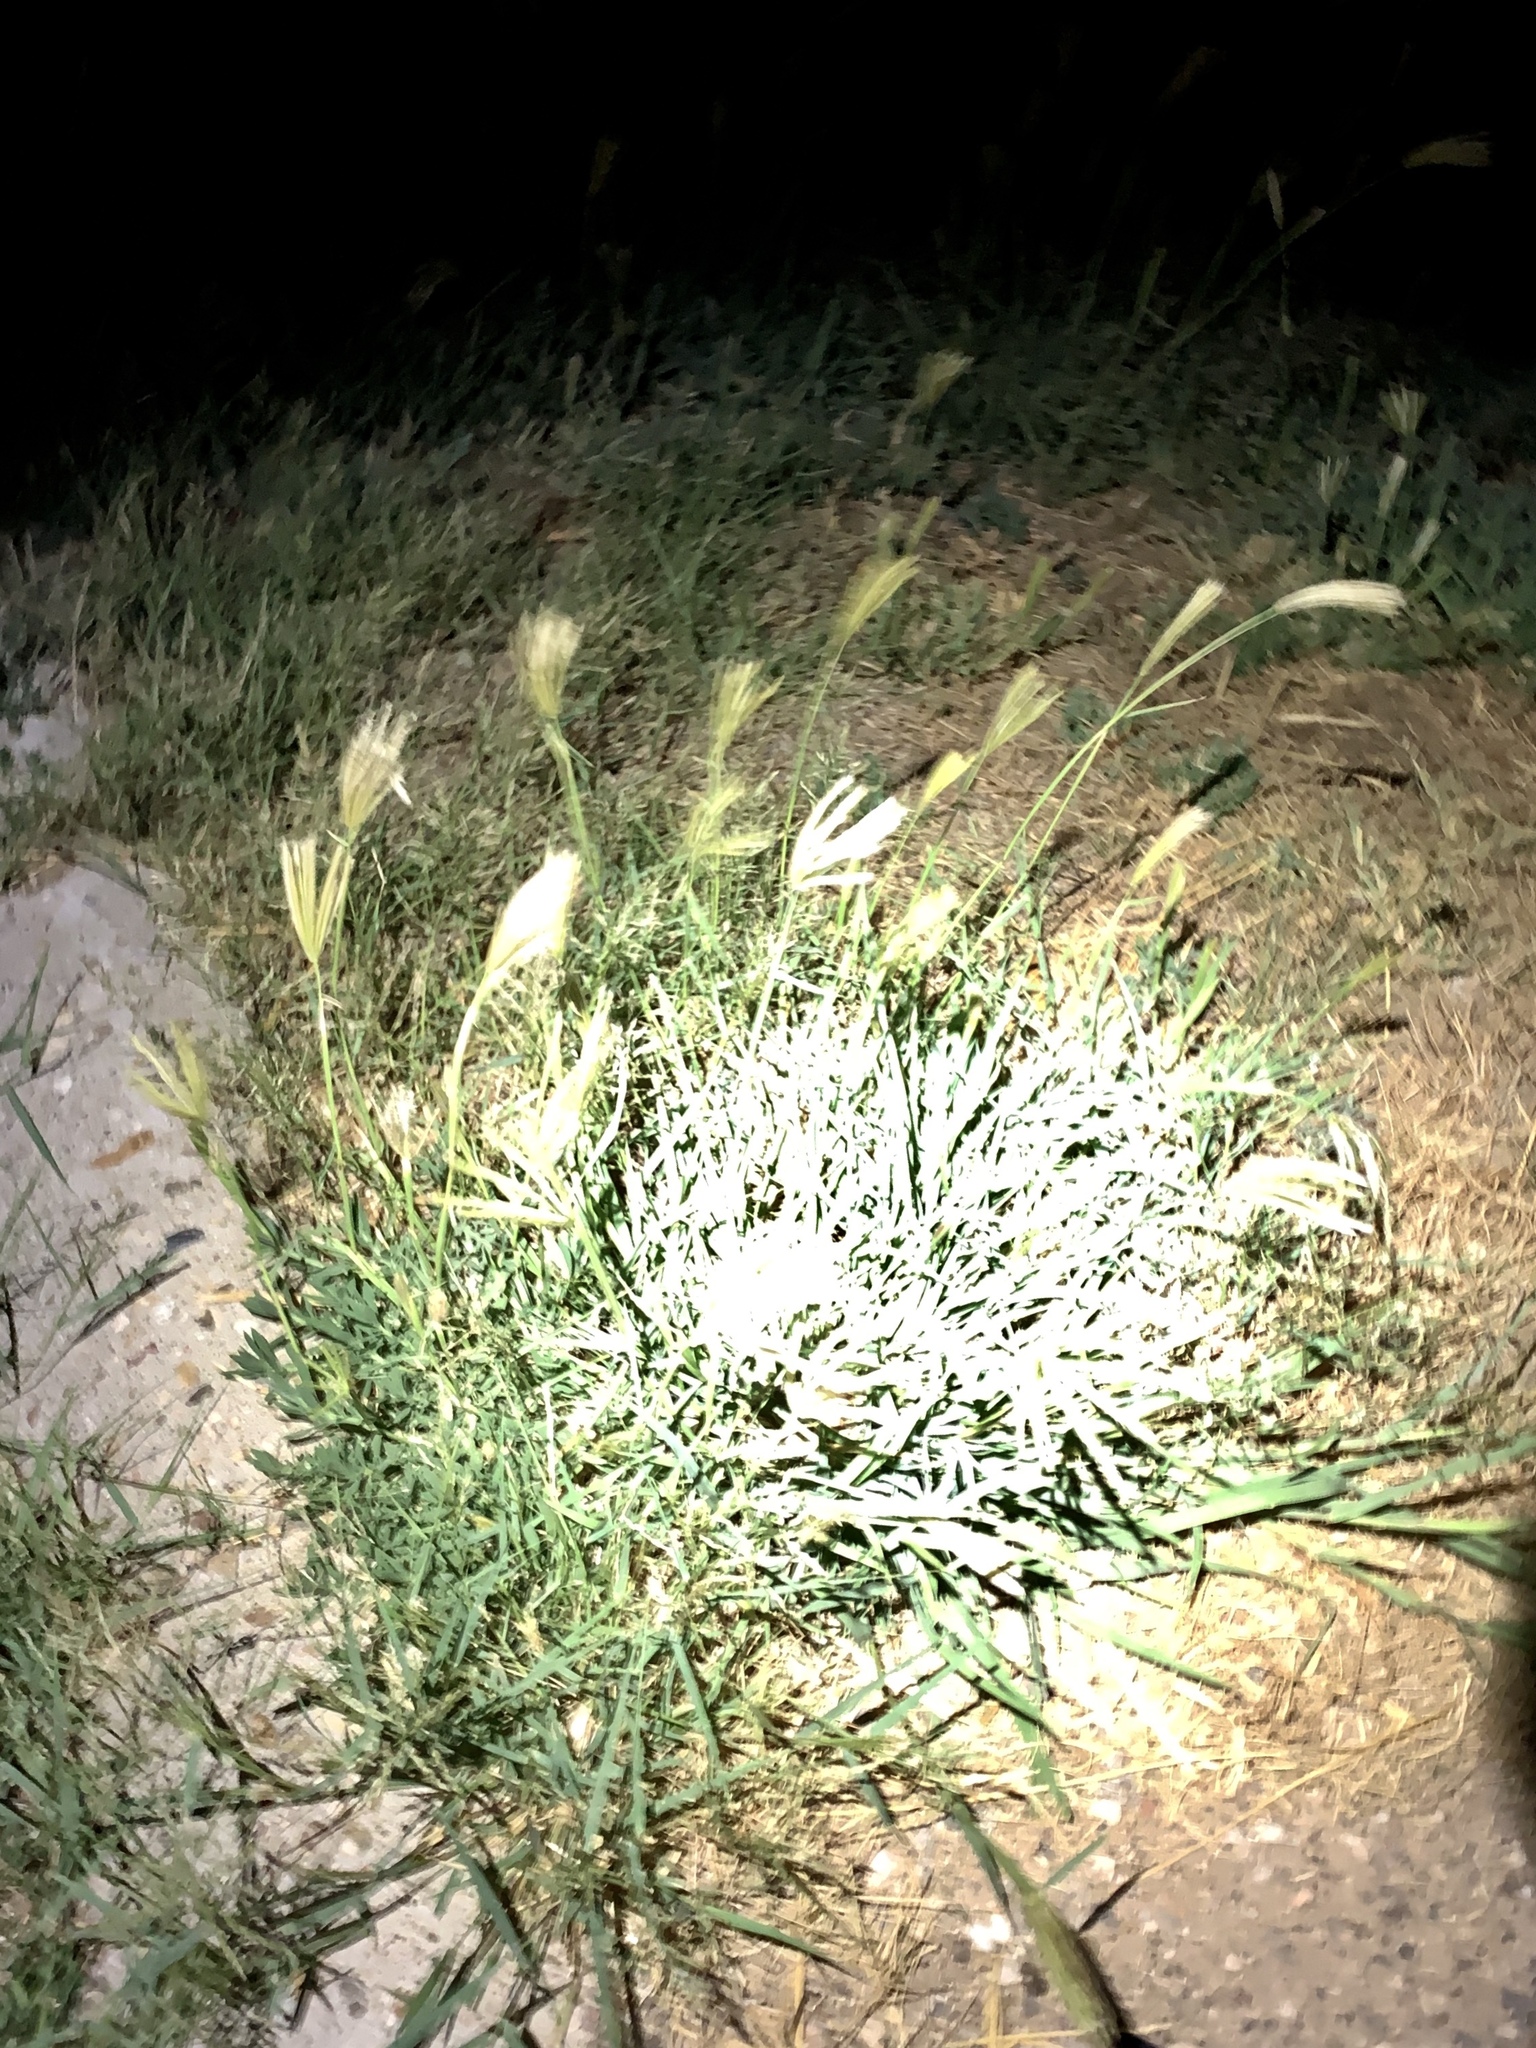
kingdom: Plantae
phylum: Tracheophyta
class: Liliopsida
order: Poales
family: Poaceae
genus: Chloris
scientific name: Chloris virgata
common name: Feathery rhodes-grass
